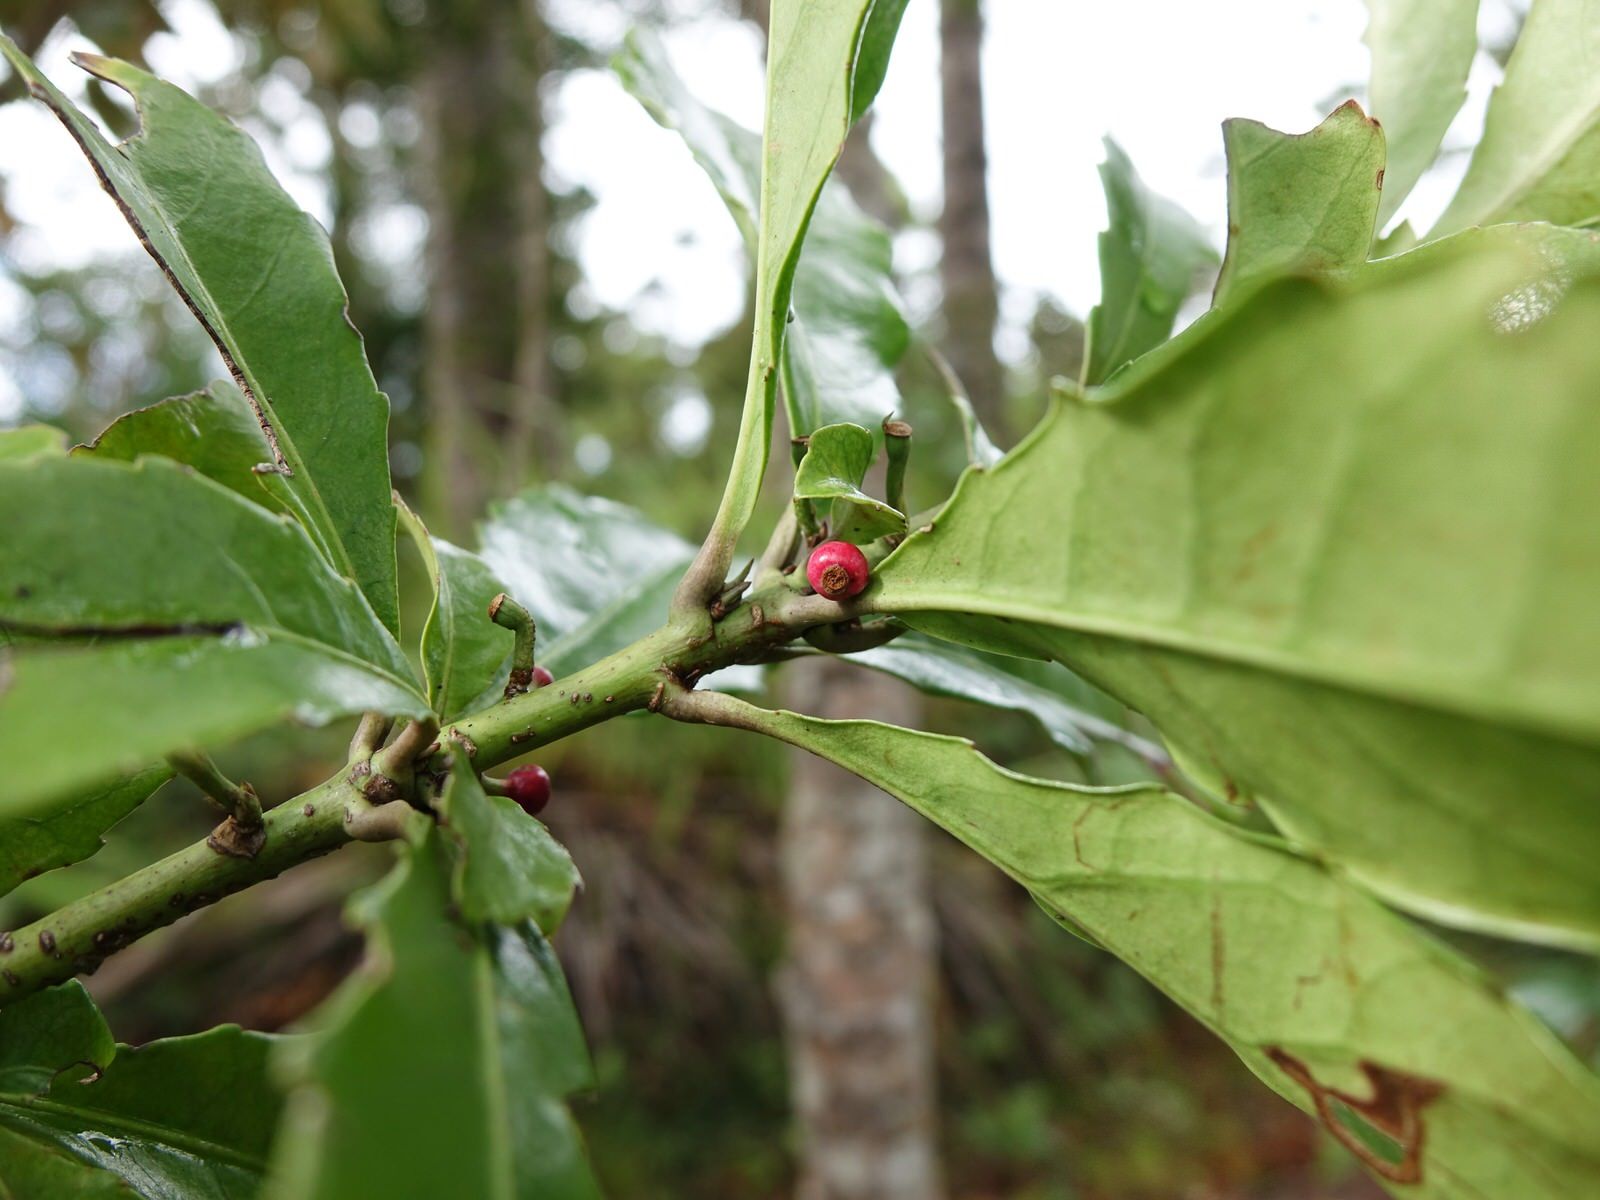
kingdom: Plantae
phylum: Tracheophyta
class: Magnoliopsida
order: Asterales
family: Alseuosmiaceae
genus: Alseuosmia
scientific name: Alseuosmia macrophylla
